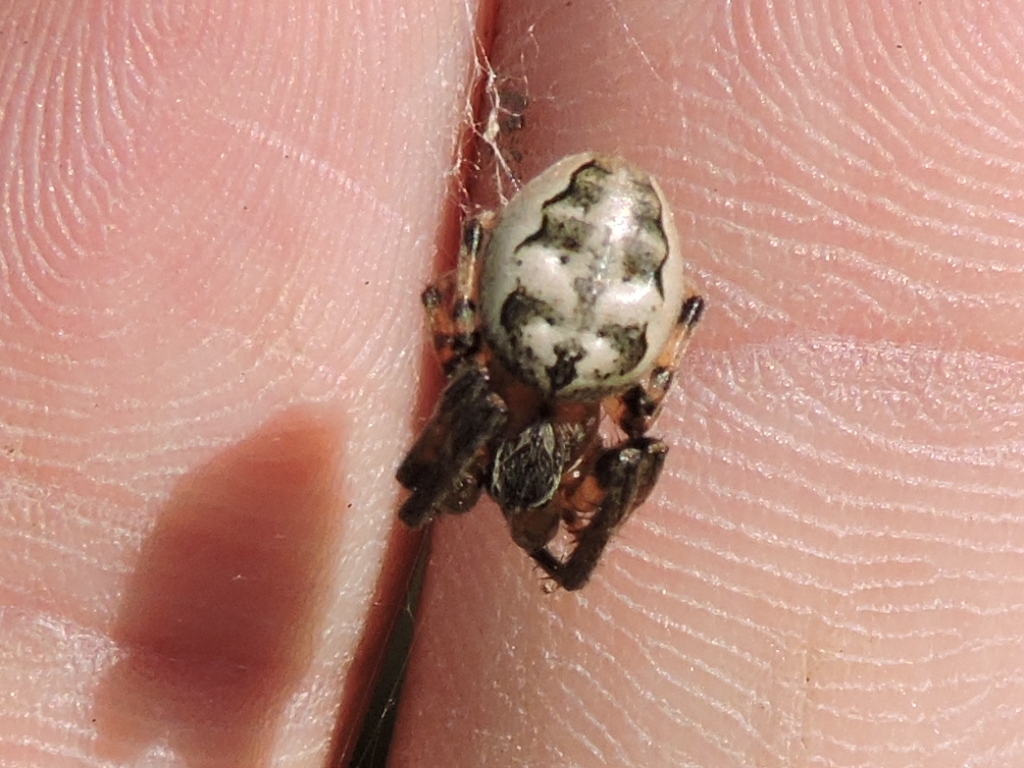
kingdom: Animalia
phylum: Arthropoda
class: Arachnida
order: Araneae
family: Araneidae
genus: Larinioides
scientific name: Larinioides cornutus
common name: Furrow orbweaver
